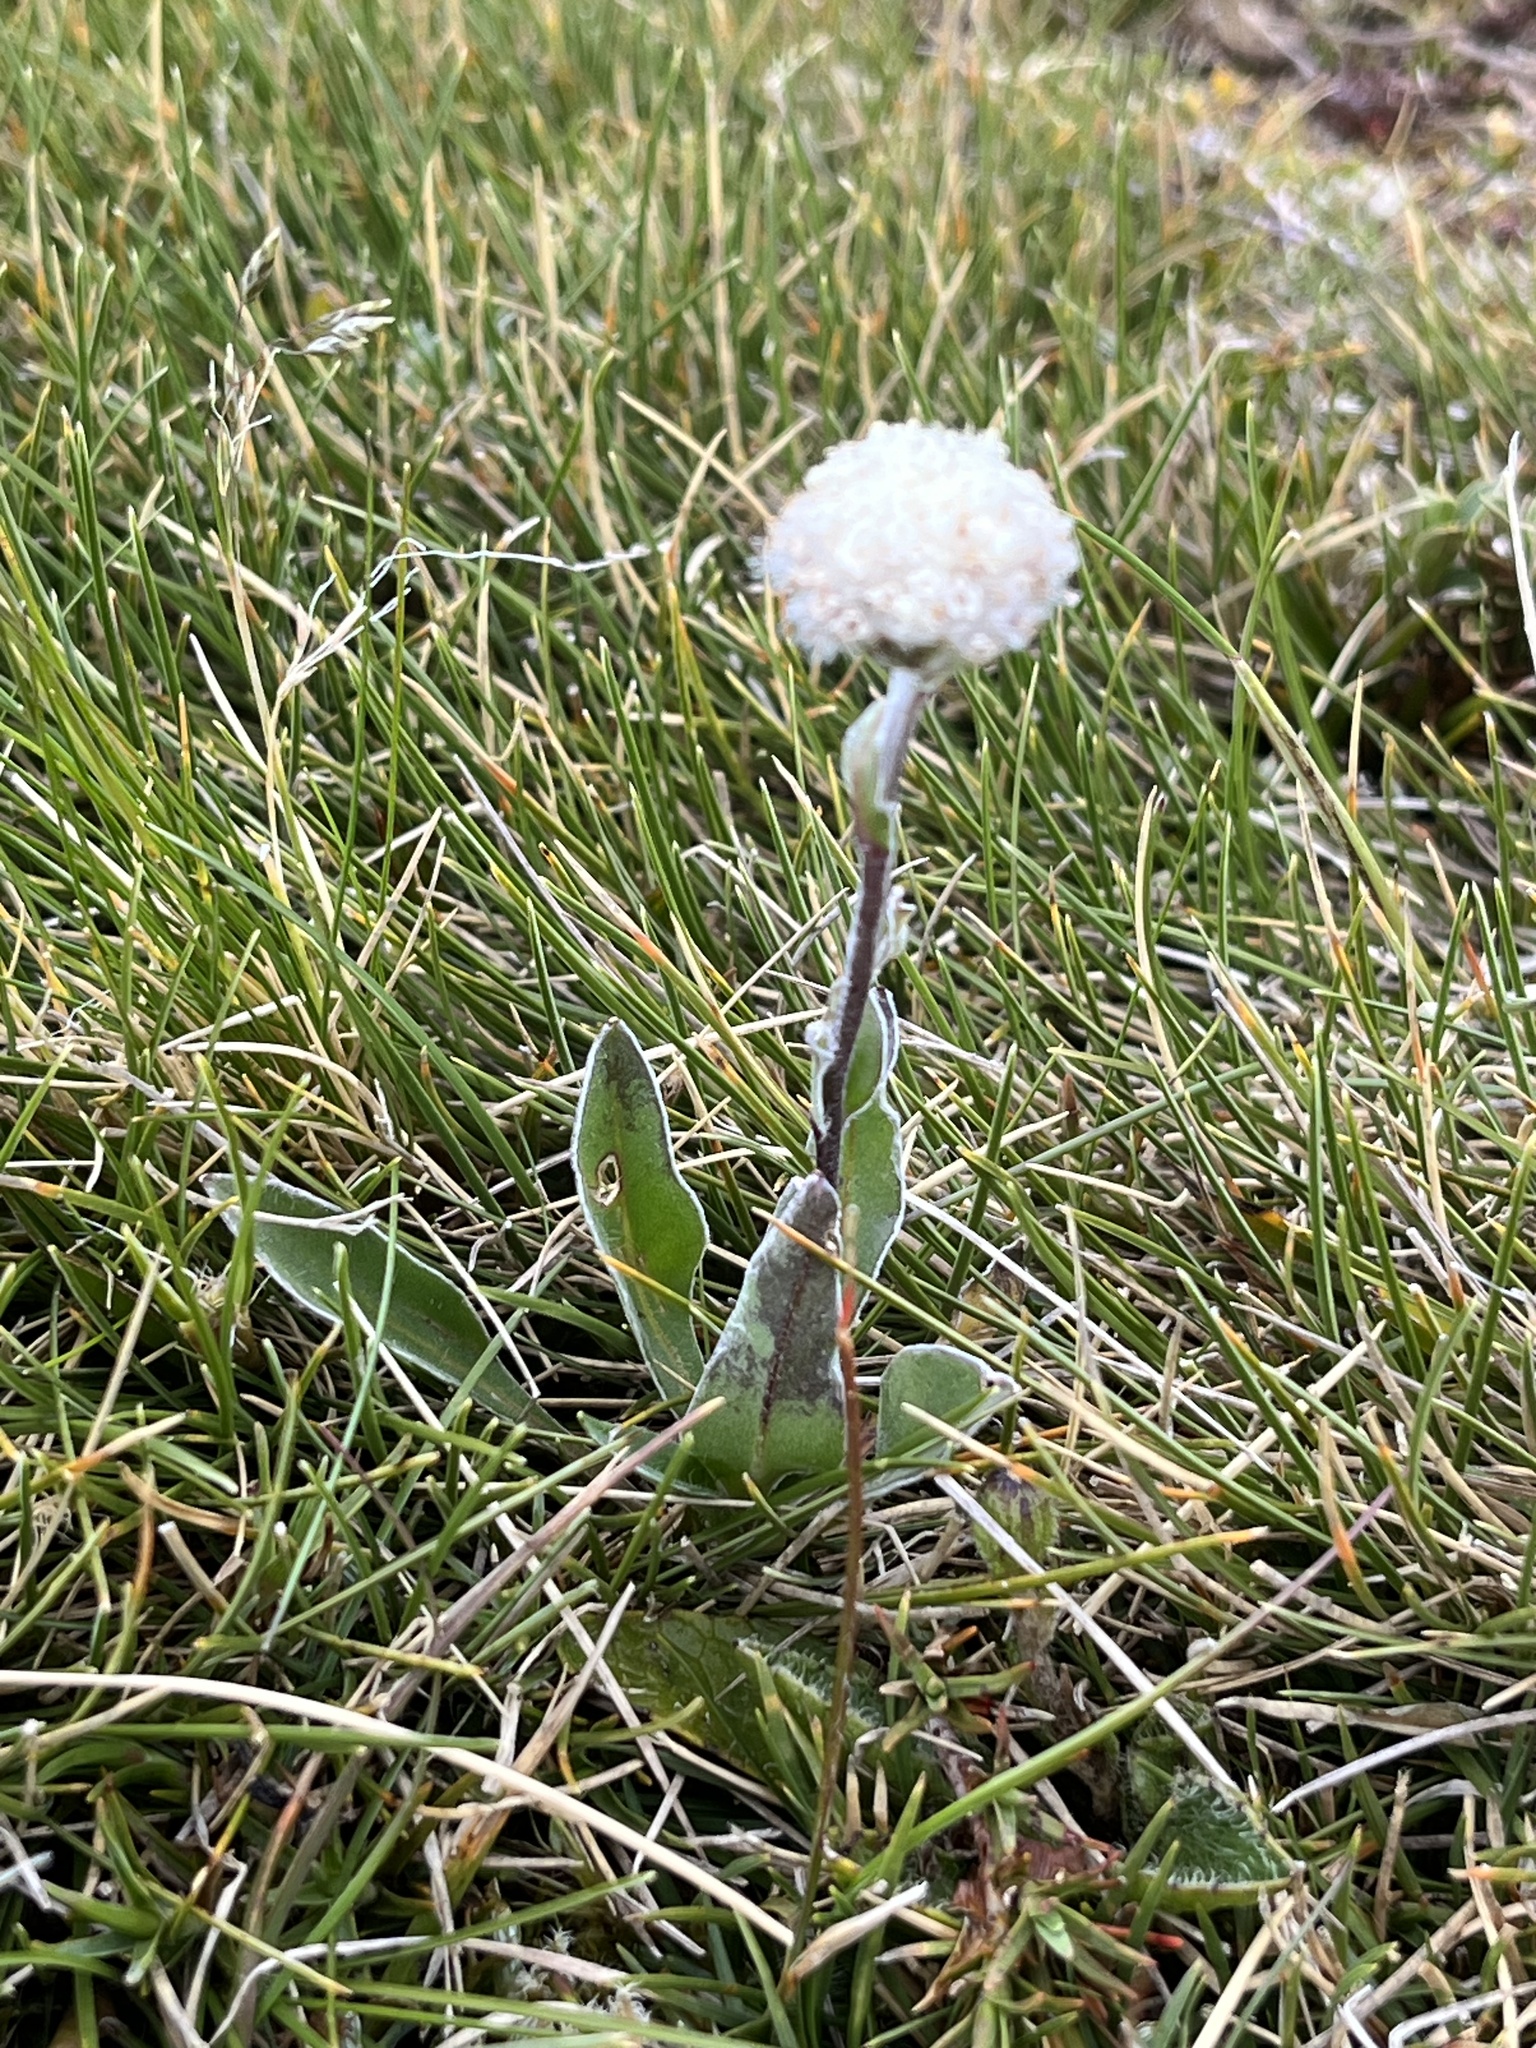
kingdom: Plantae
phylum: Tracheophyta
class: Magnoliopsida
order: Asterales
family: Asteraceae
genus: Craspedia
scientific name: Craspedia uniflora
